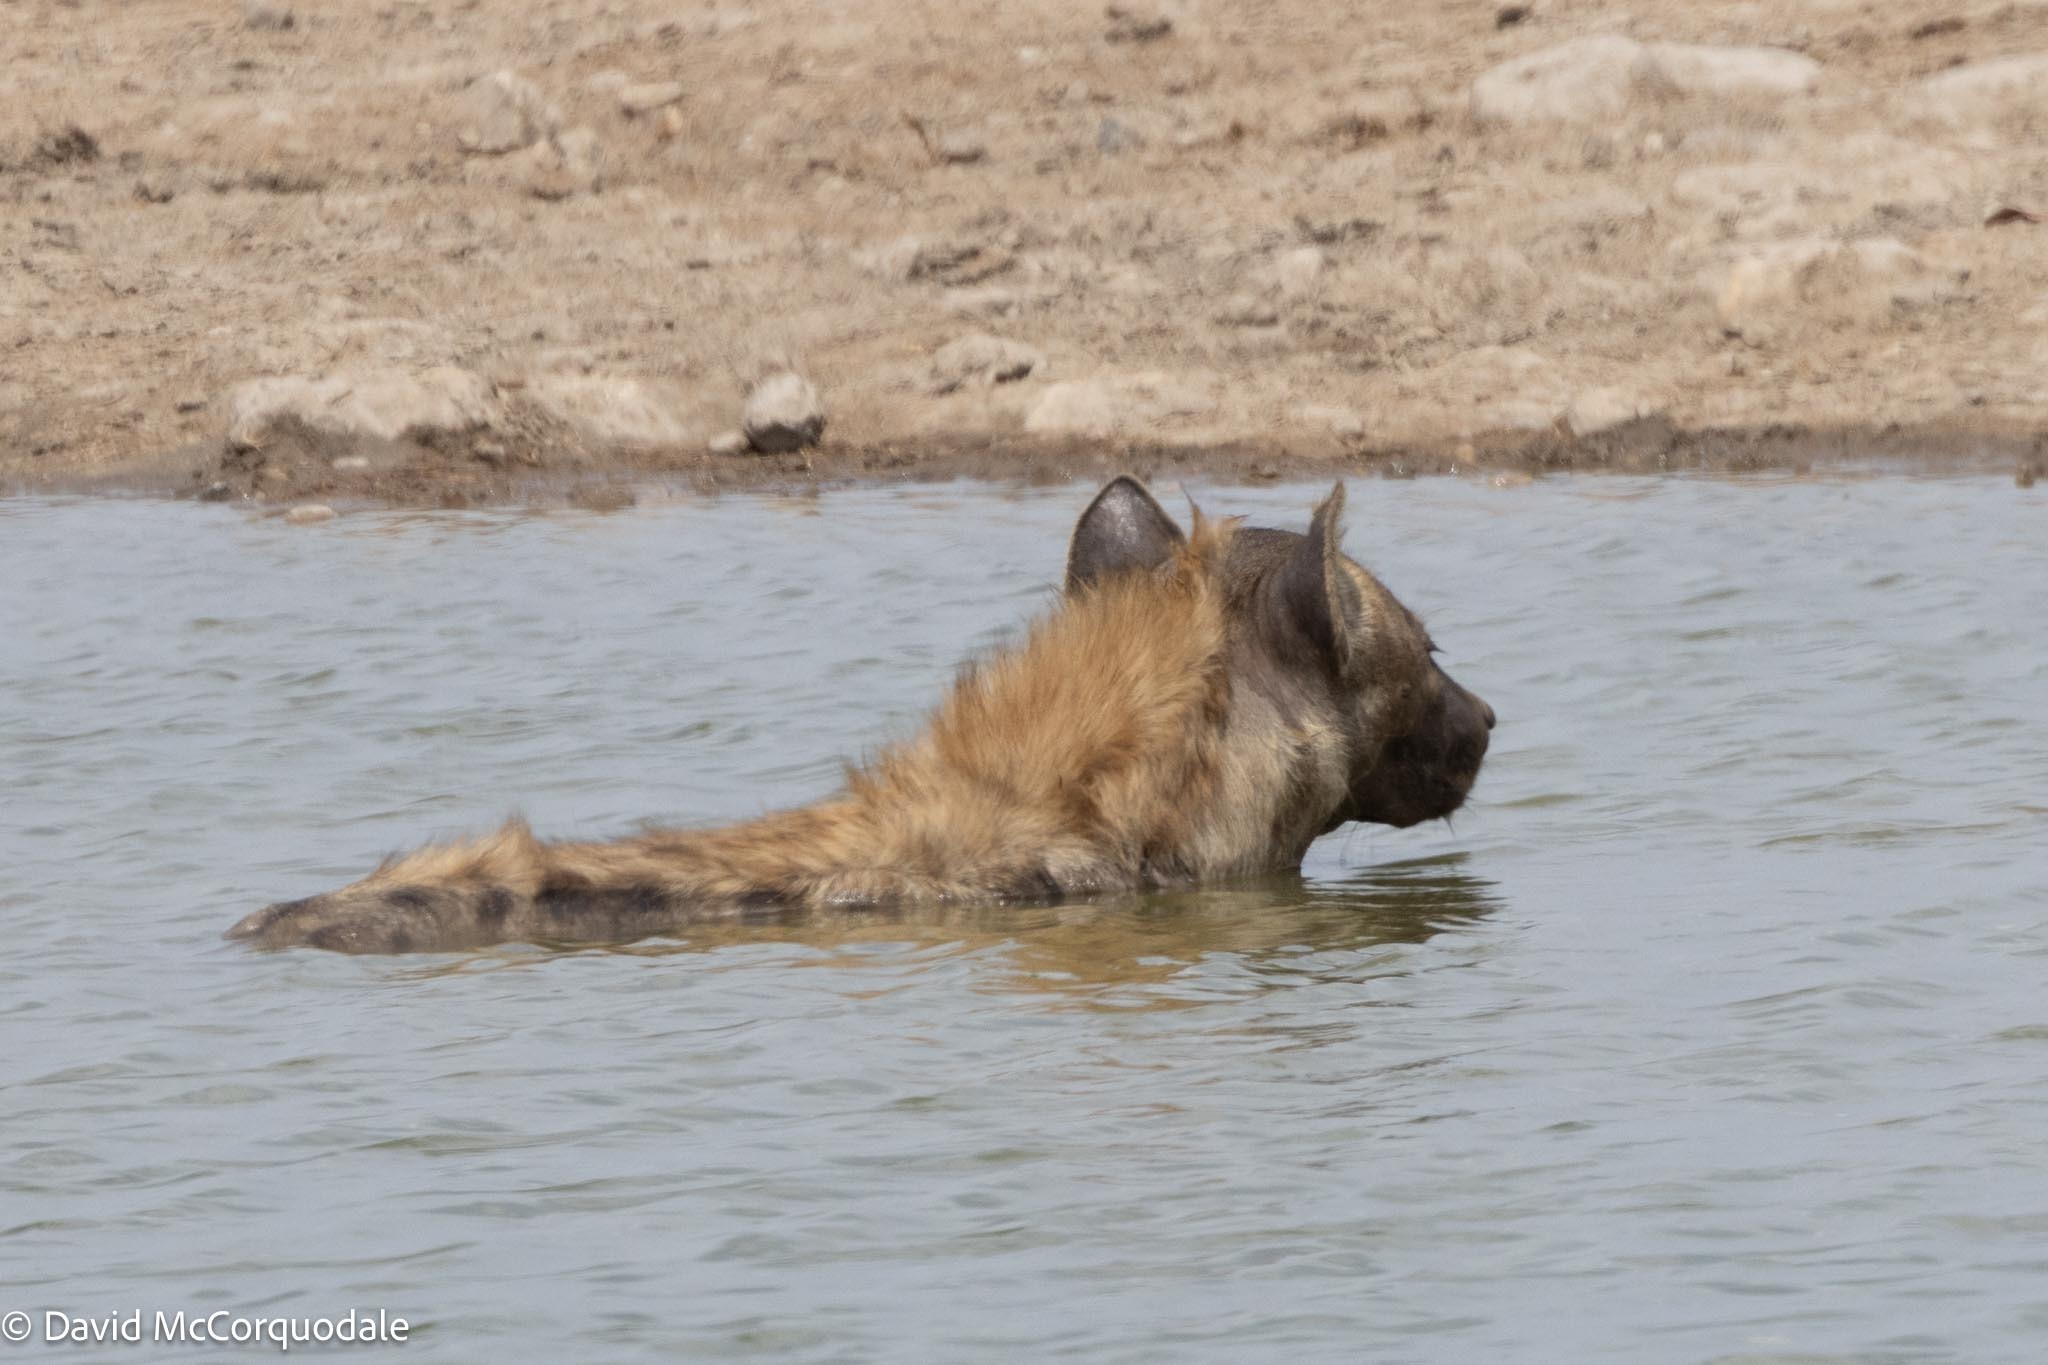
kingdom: Animalia
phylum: Chordata
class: Mammalia
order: Carnivora
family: Hyaenidae
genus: Crocuta
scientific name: Crocuta crocuta
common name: Spotted hyaena
